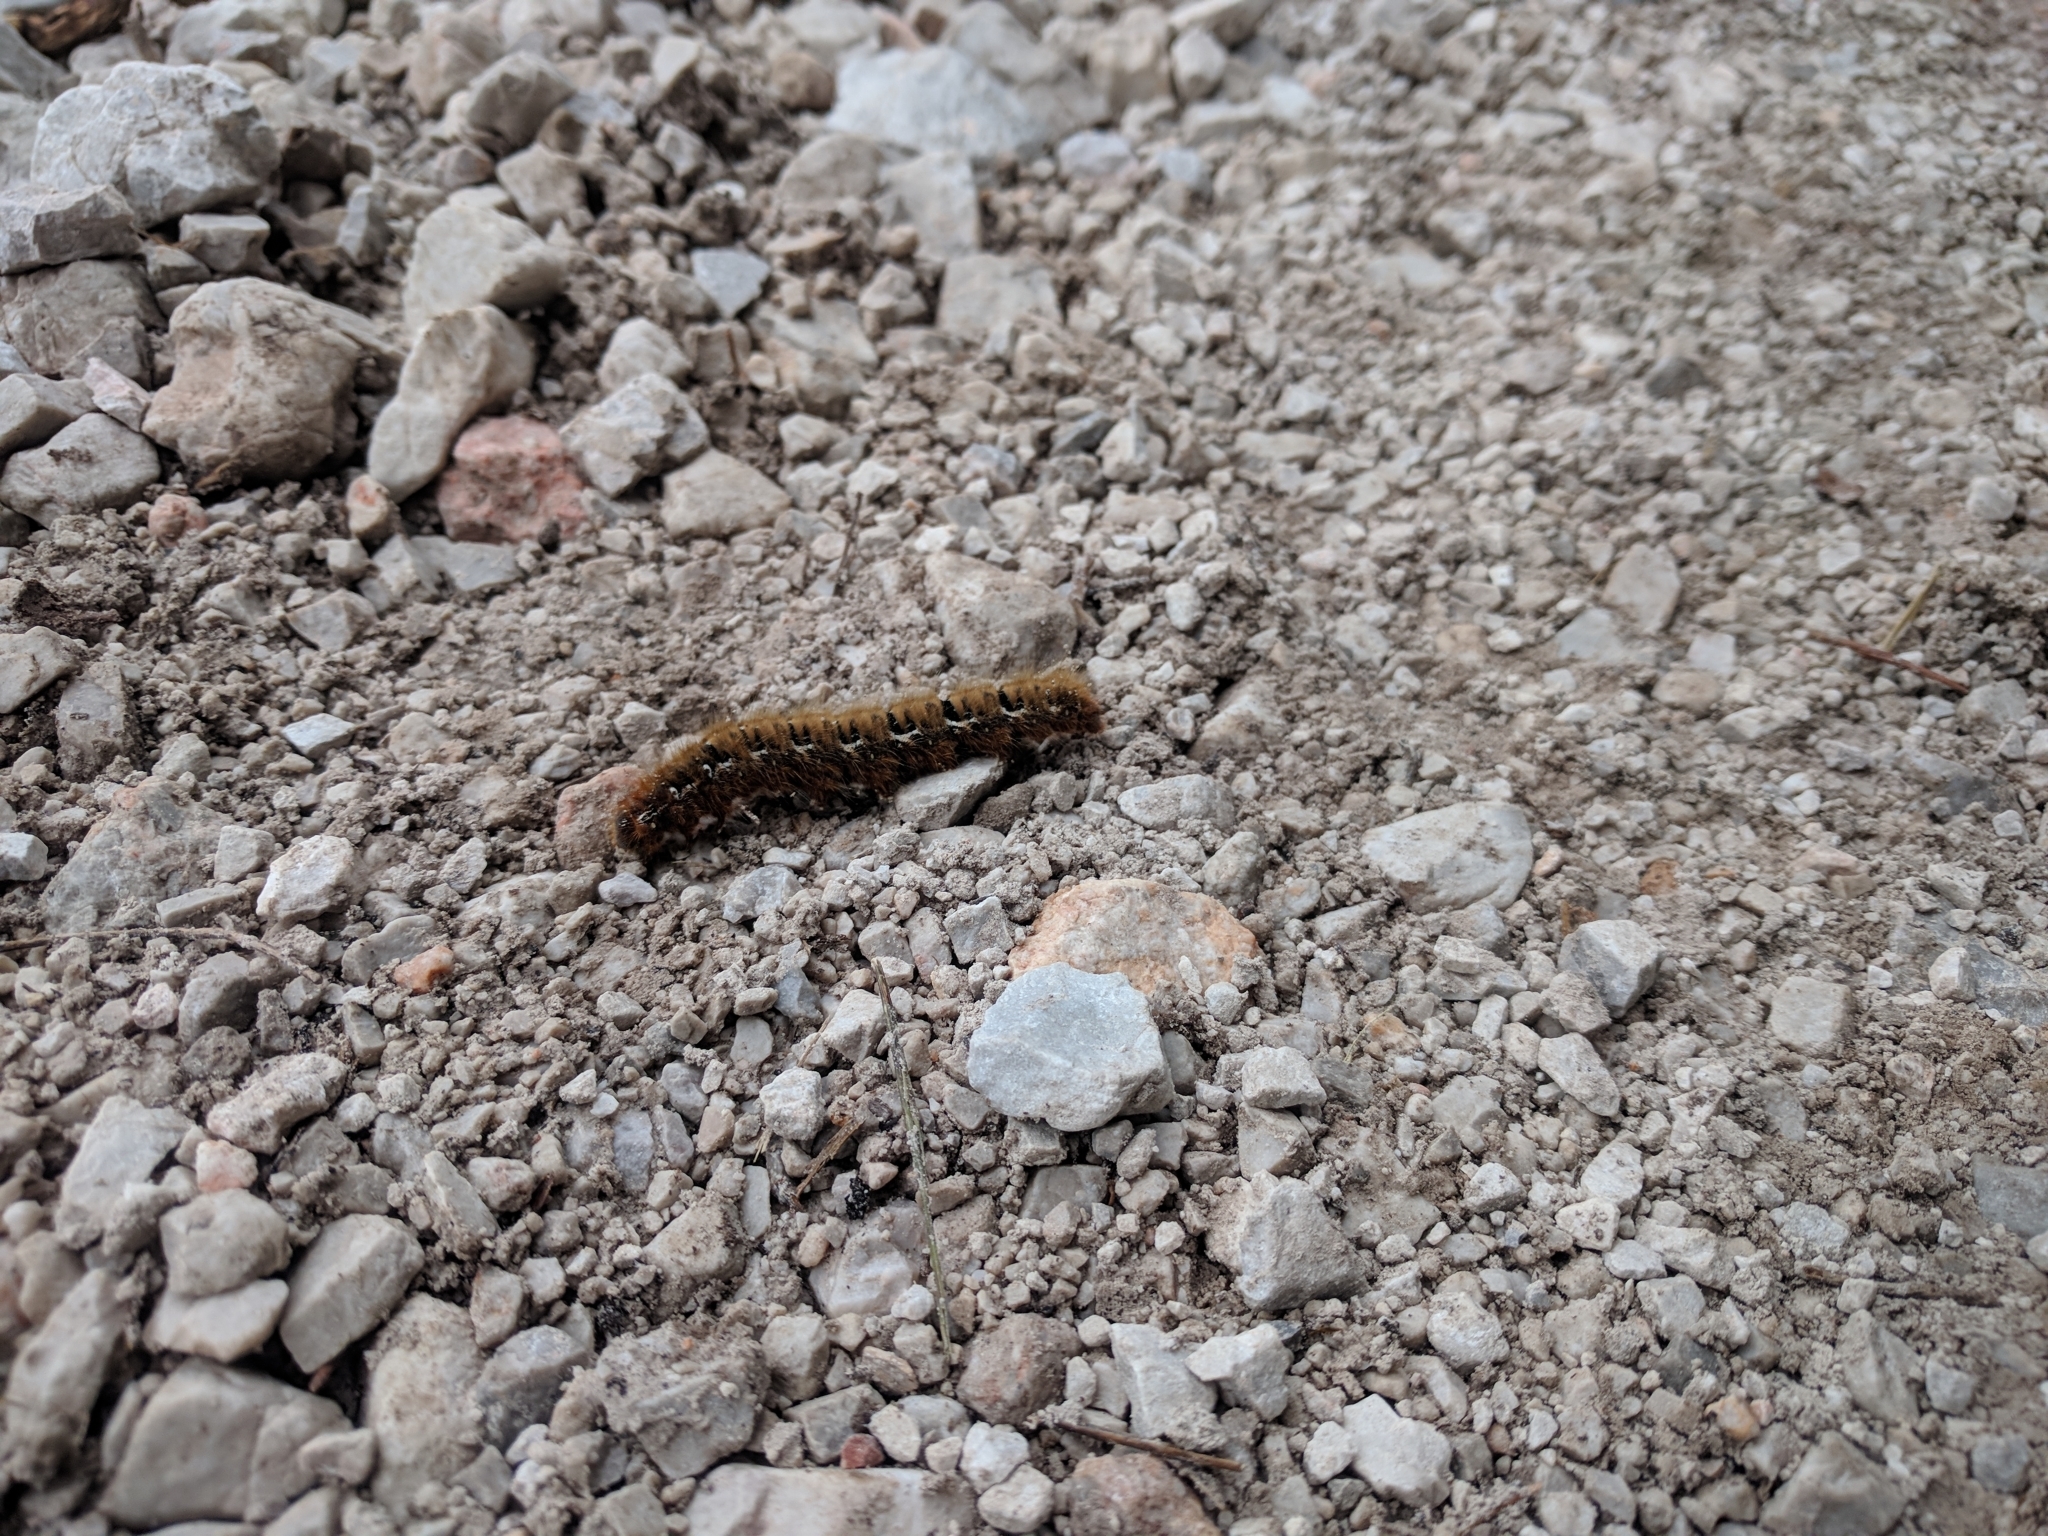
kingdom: Animalia
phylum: Arthropoda
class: Insecta
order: Lepidoptera
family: Lasiocampidae
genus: Lasiocampa
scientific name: Lasiocampa quercus
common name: Oak eggar
